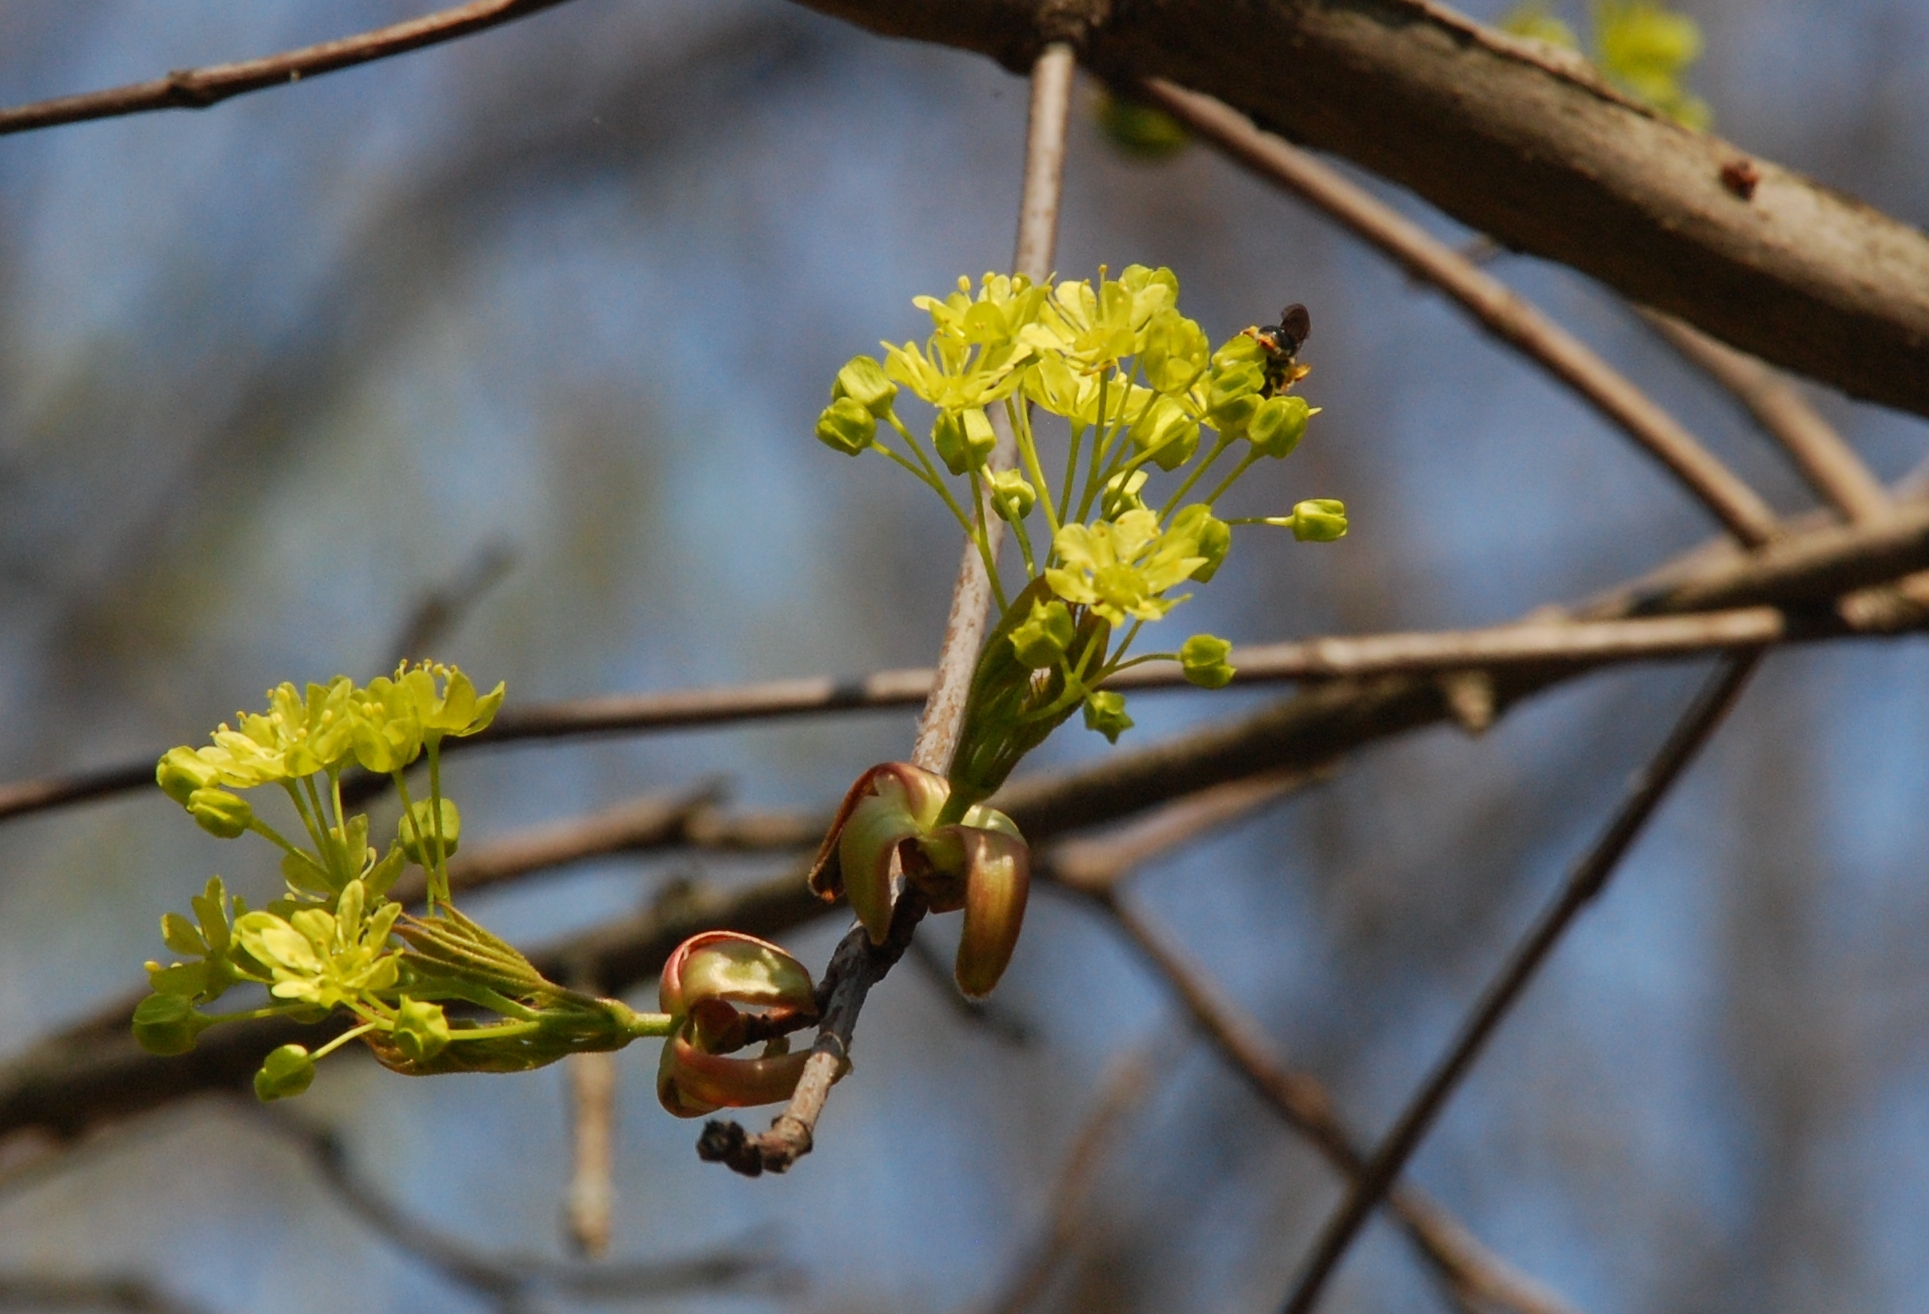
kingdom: Plantae
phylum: Tracheophyta
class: Magnoliopsida
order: Sapindales
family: Sapindaceae
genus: Acer
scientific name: Acer platanoides
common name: Norway maple
